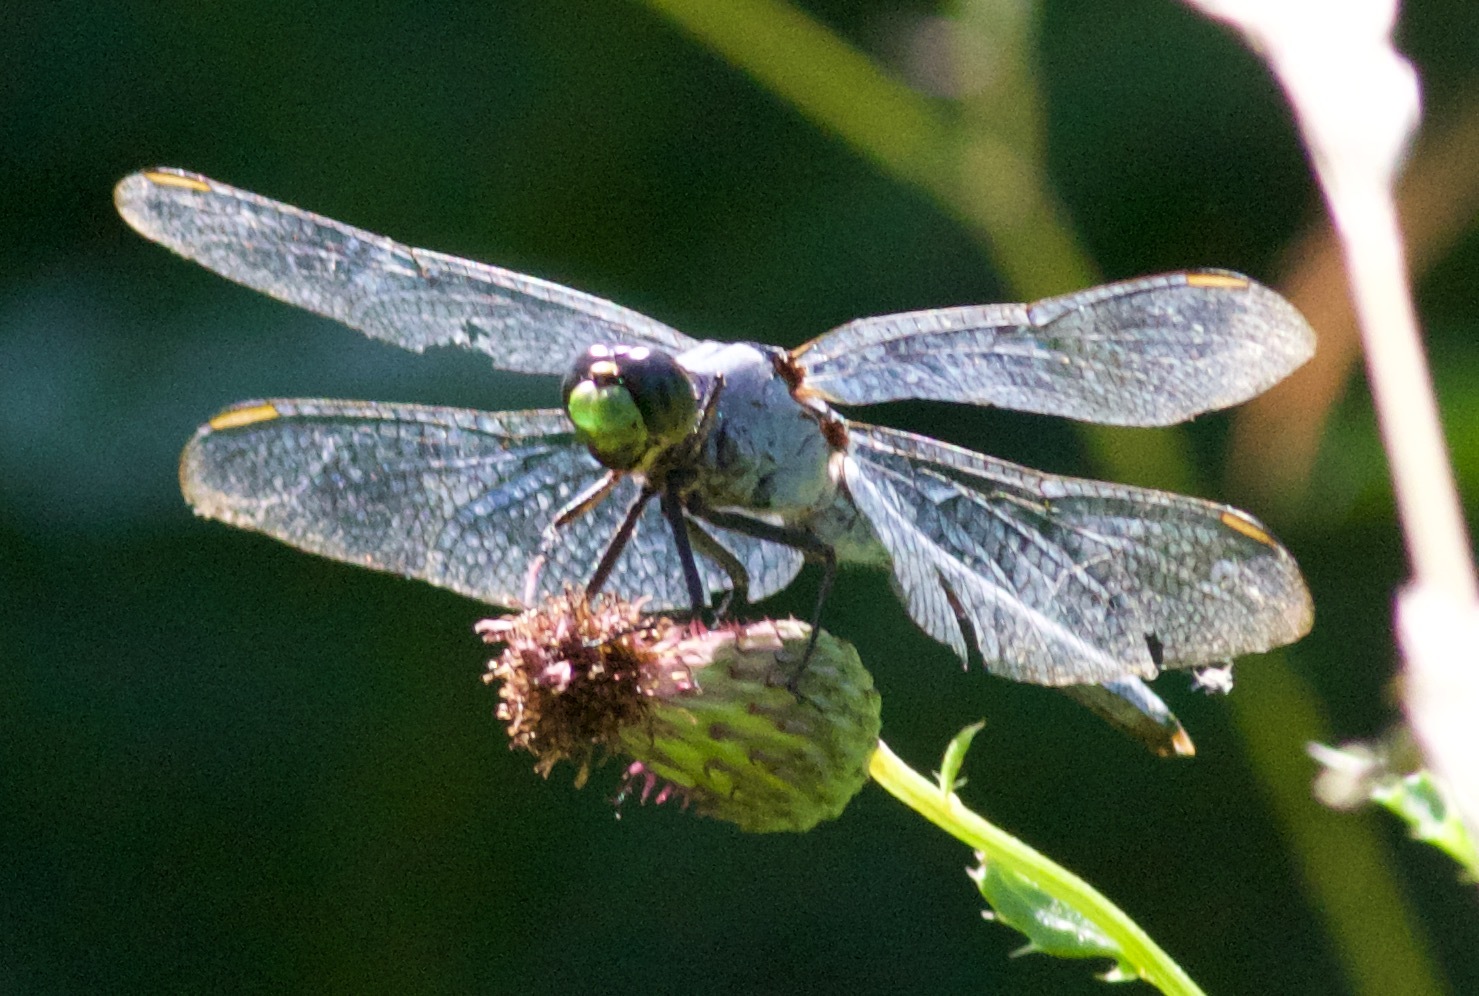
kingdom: Animalia
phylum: Arthropoda
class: Insecta
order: Odonata
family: Libellulidae
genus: Erythemis
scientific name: Erythemis simplicicollis
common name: Eastern pondhawk
